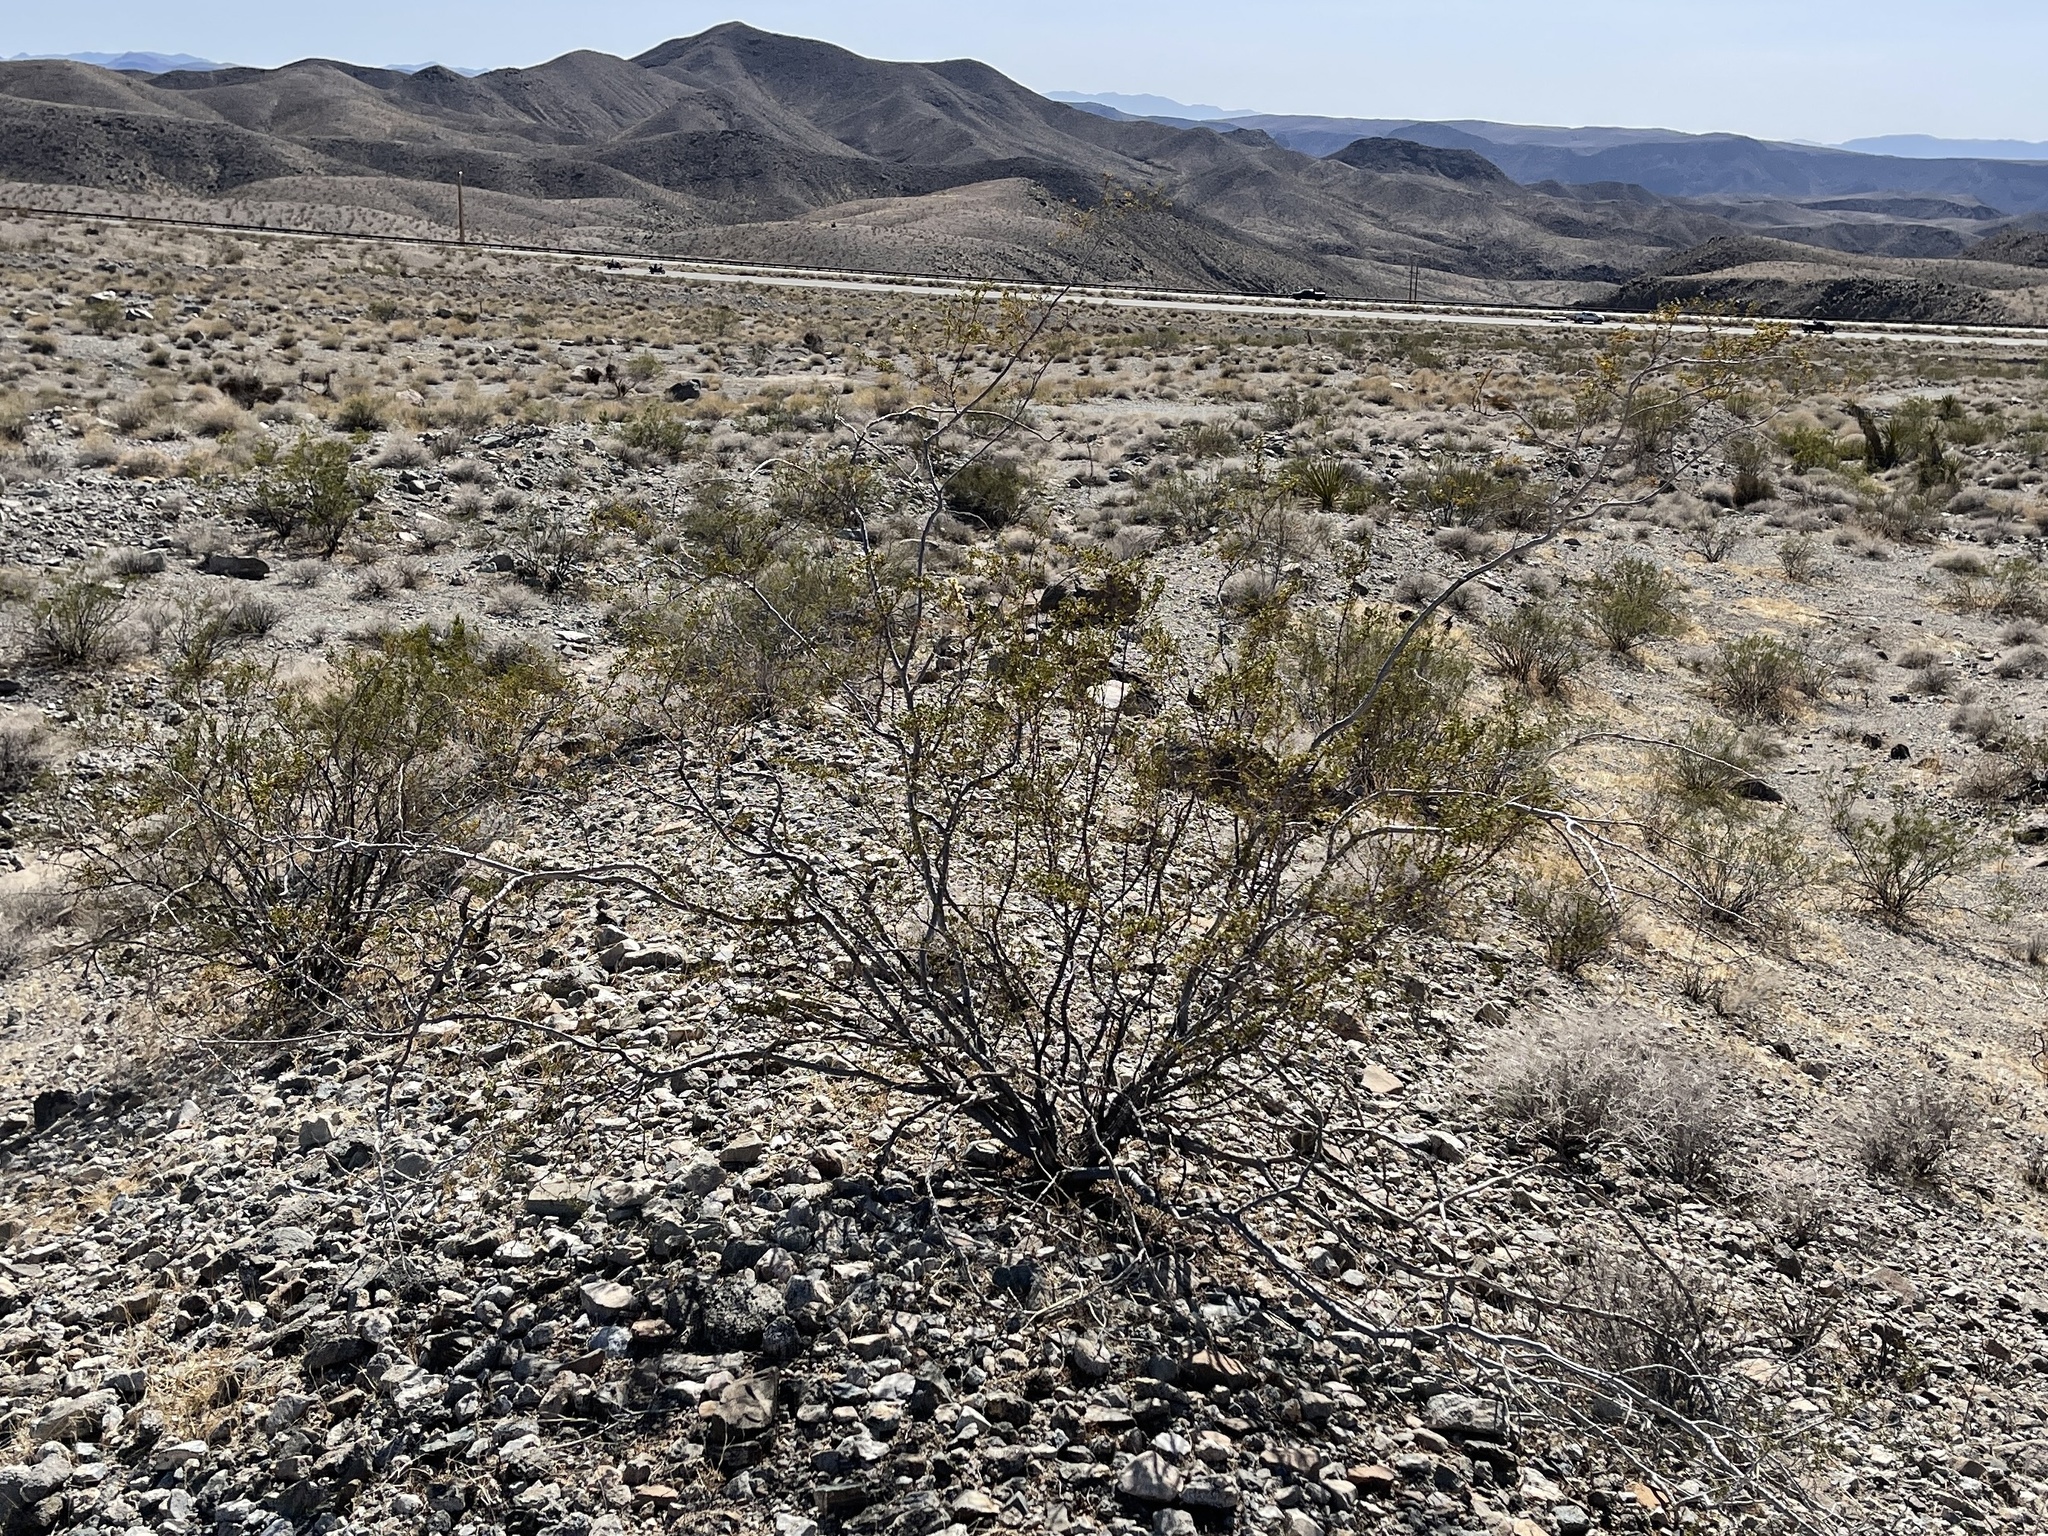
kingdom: Plantae
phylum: Tracheophyta
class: Magnoliopsida
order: Zygophyllales
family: Zygophyllaceae
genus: Larrea
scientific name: Larrea tridentata
